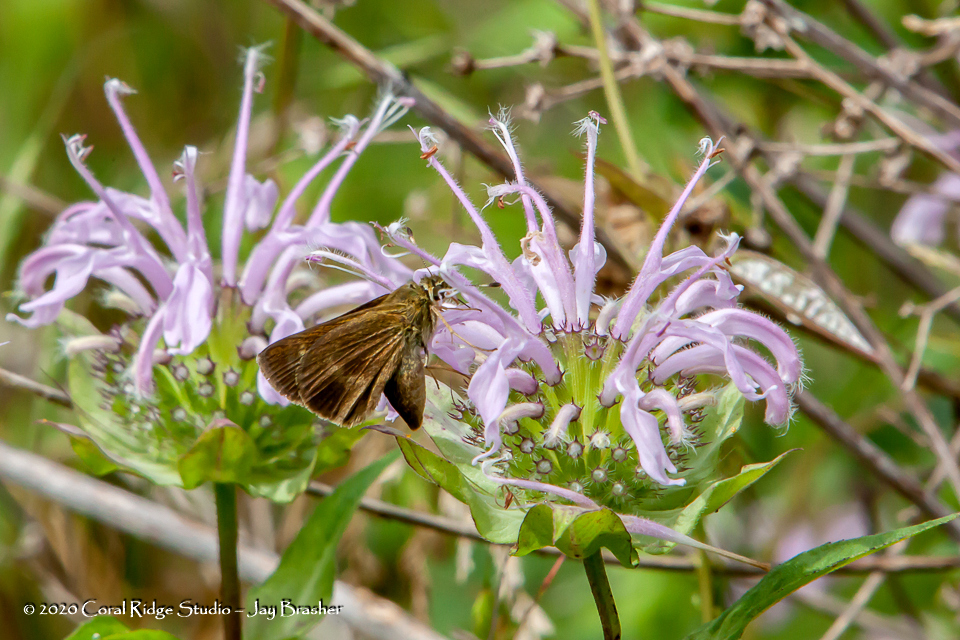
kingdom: Plantae
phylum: Tracheophyta
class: Magnoliopsida
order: Lamiales
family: Lamiaceae
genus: Monarda
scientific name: Monarda fistulosa
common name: Purple beebalm
